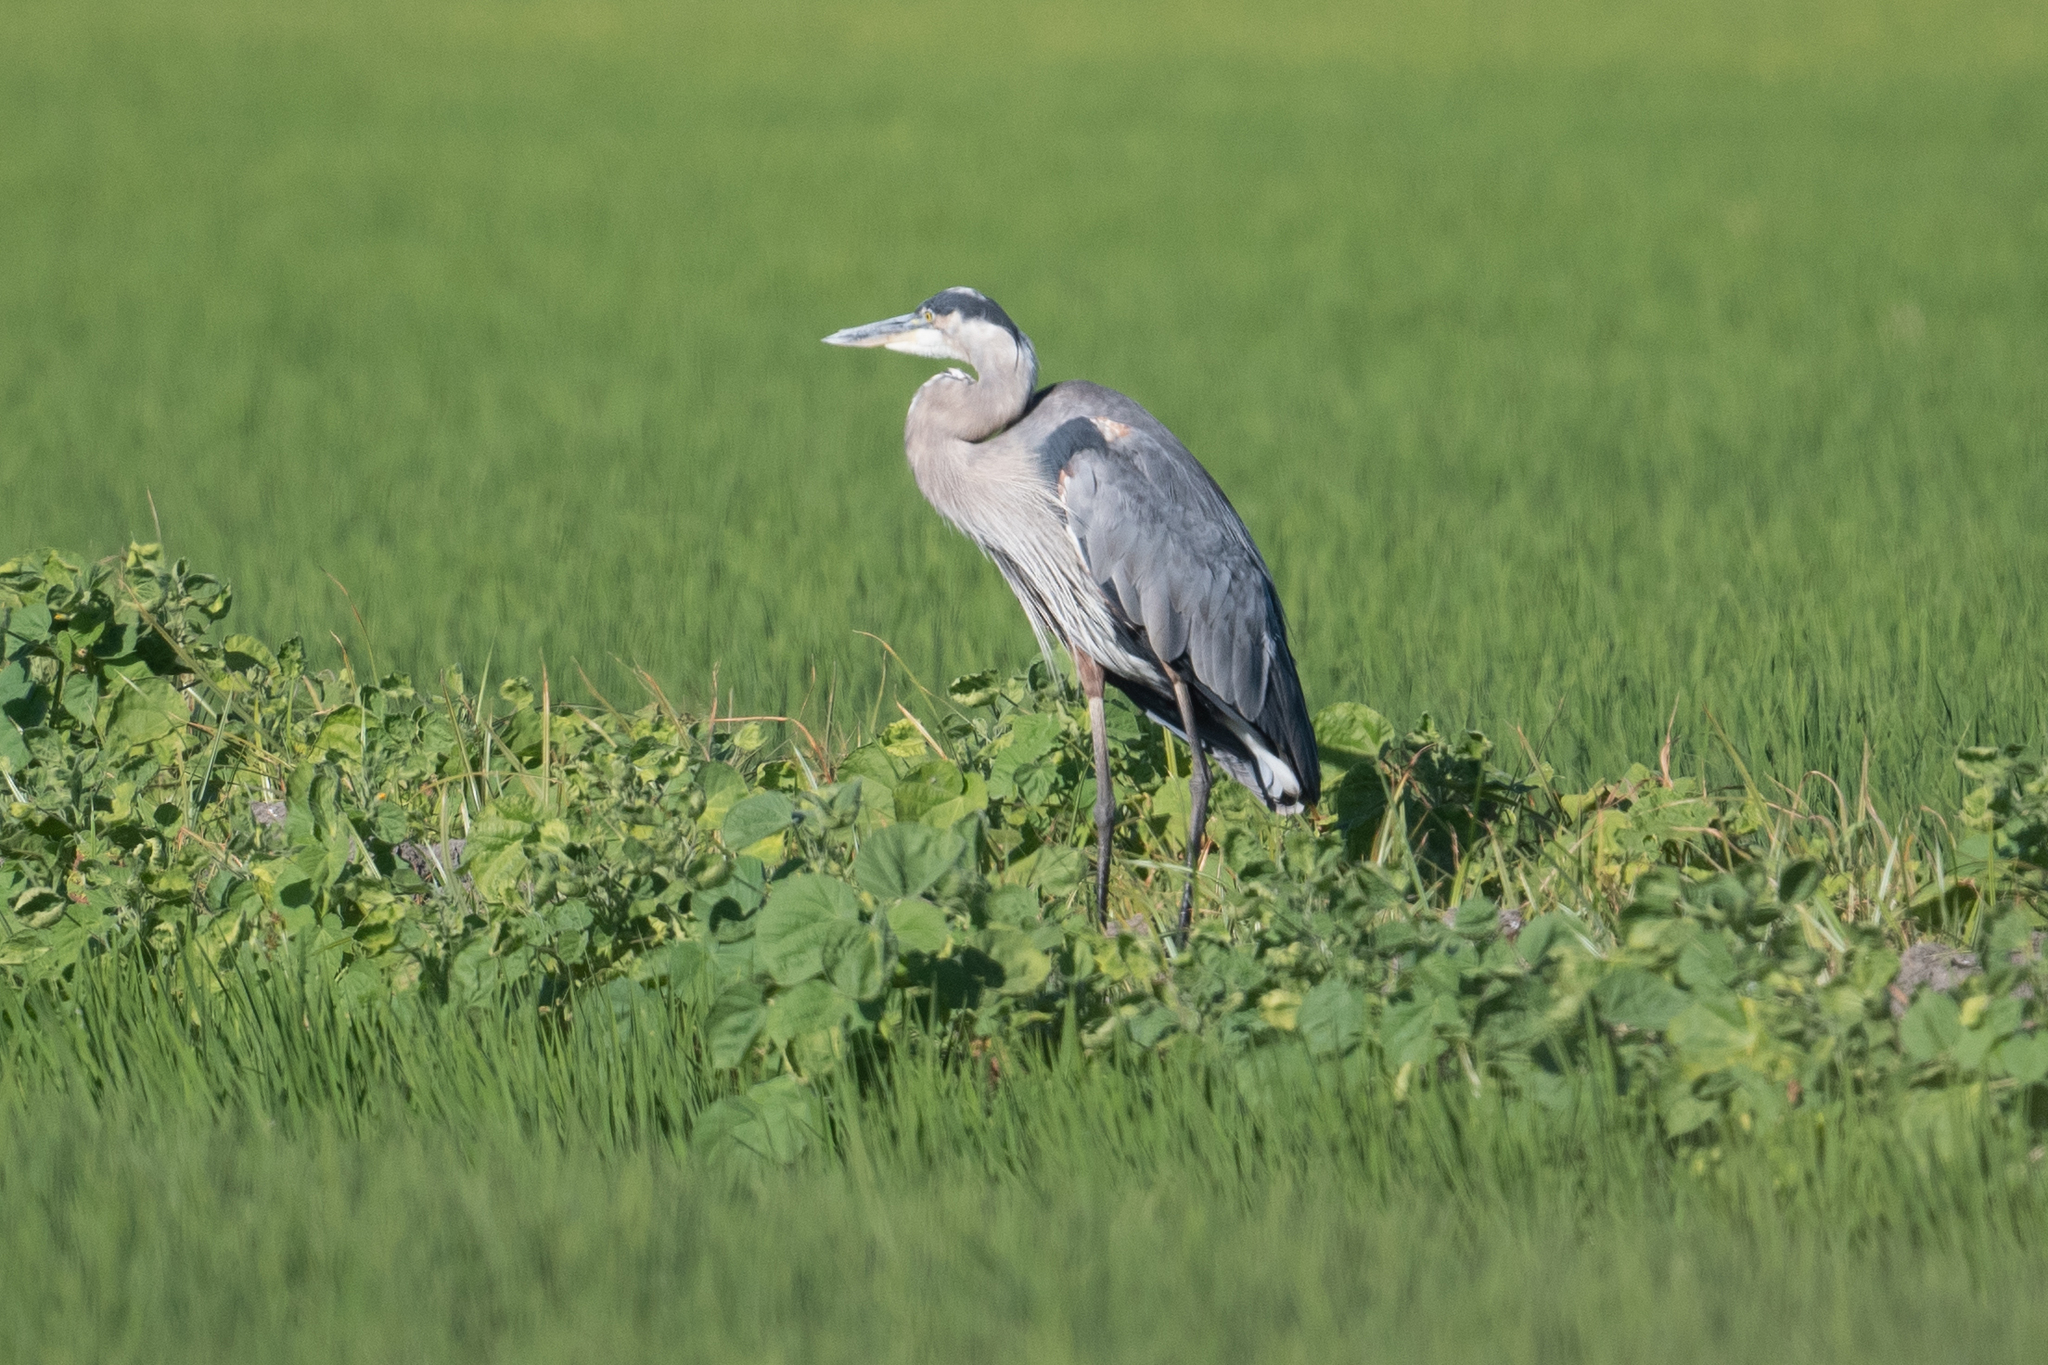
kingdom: Animalia
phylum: Chordata
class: Aves
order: Pelecaniformes
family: Ardeidae
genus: Ardea
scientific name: Ardea herodias
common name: Great blue heron
